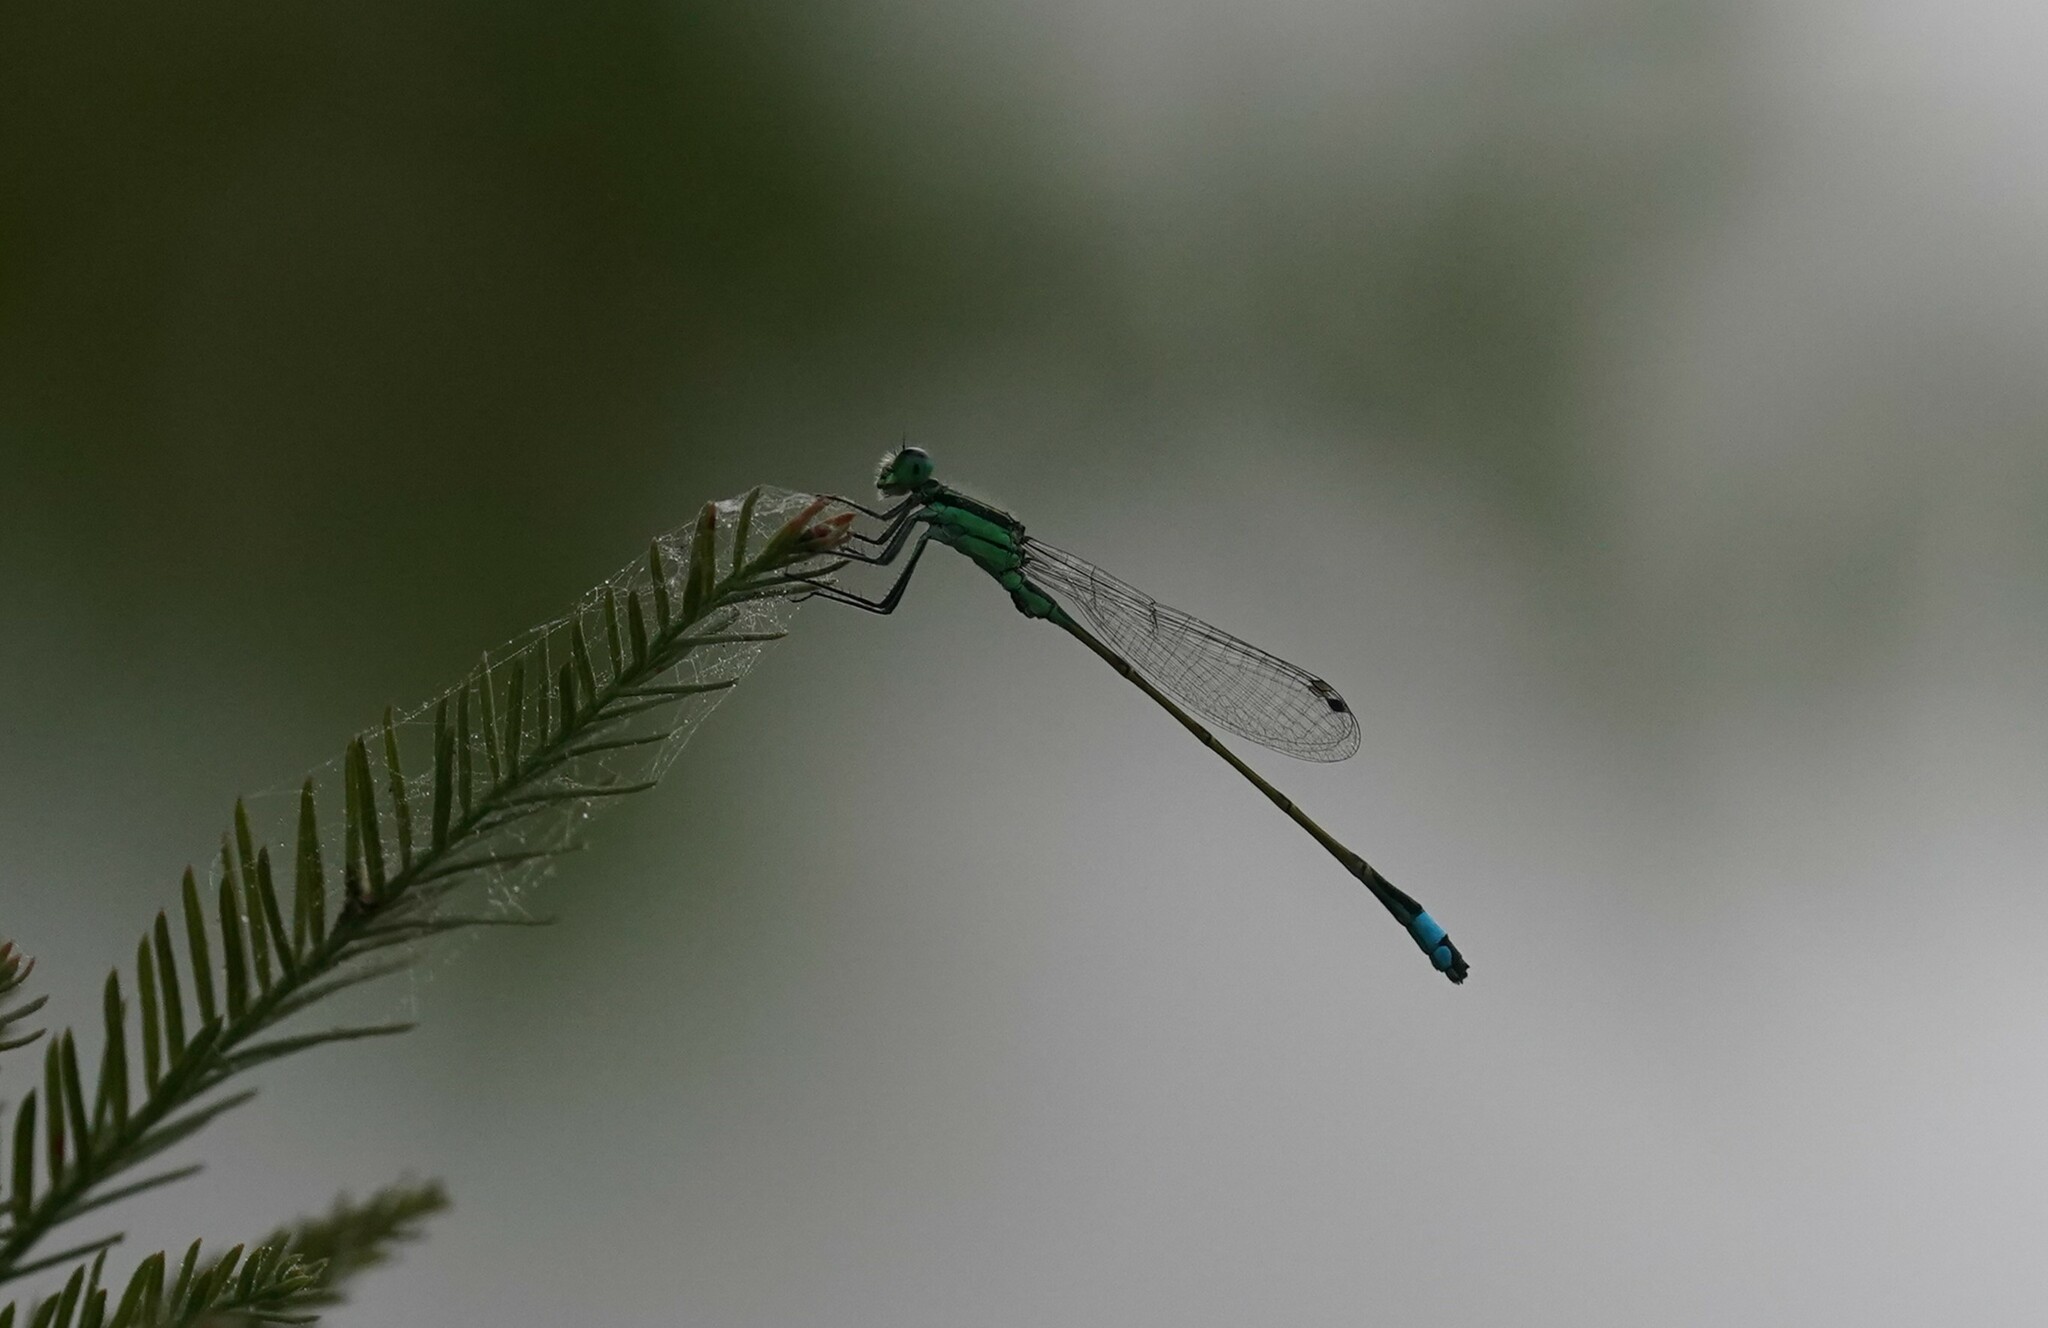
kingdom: Animalia
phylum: Arthropoda
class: Insecta
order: Odonata
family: Coenagrionidae
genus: Ischnura
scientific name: Ischnura ramburii
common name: Rambur's forktail
